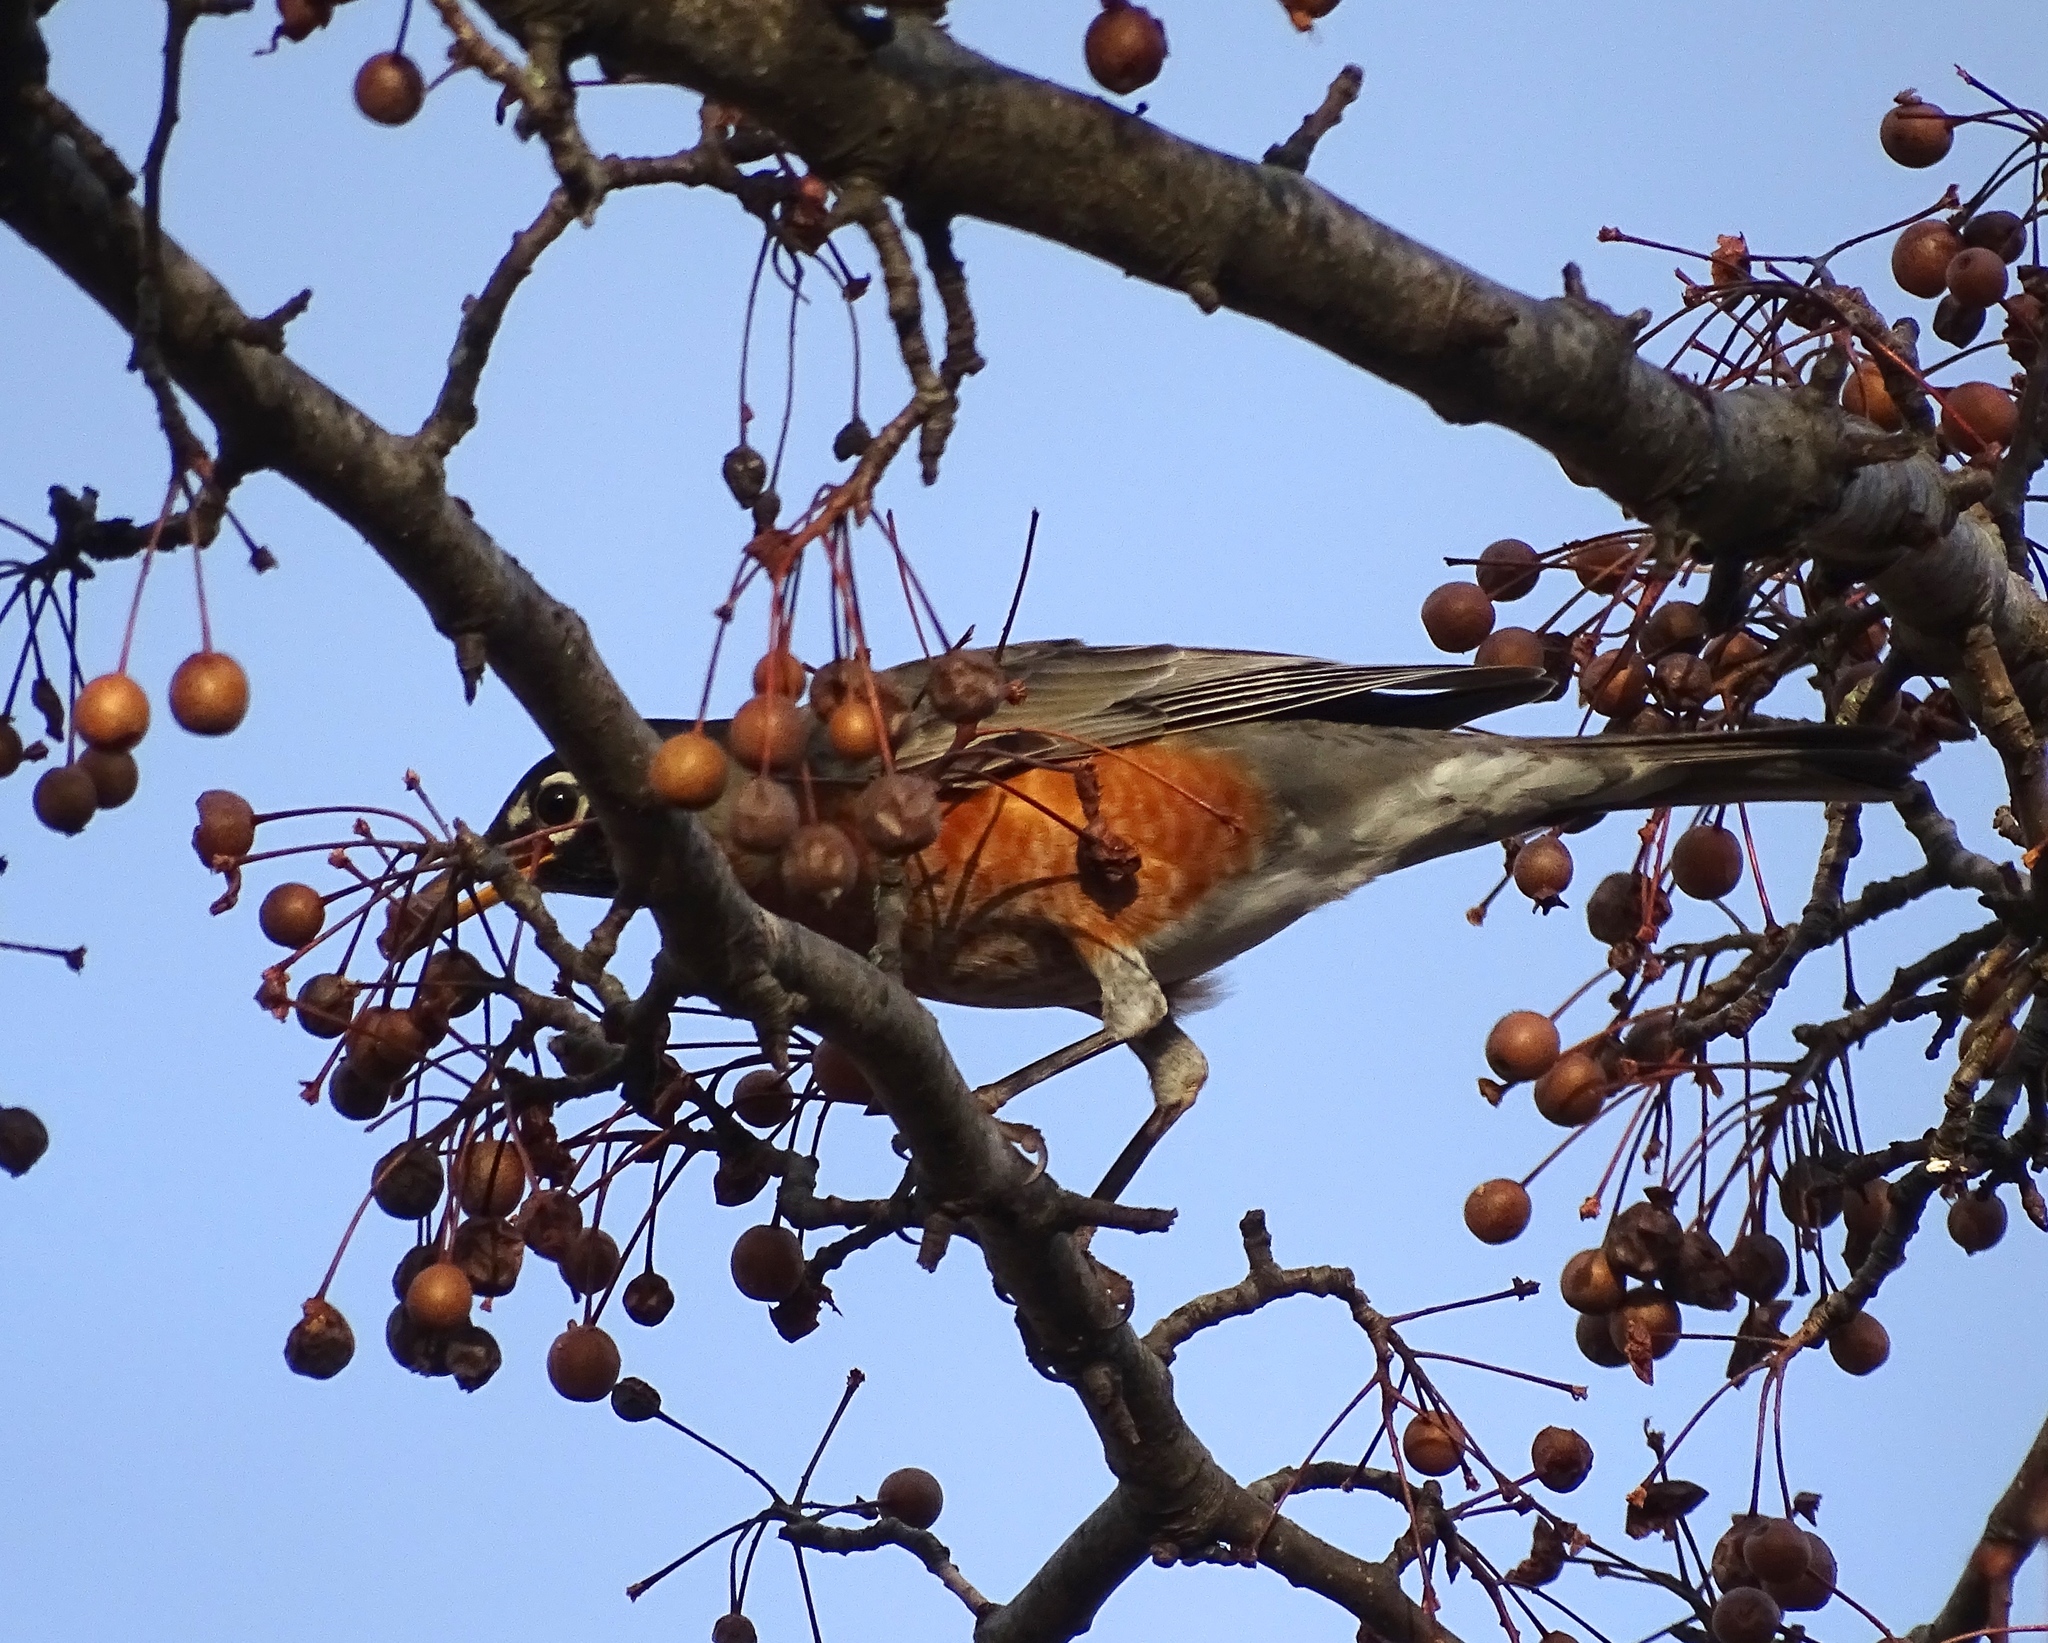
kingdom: Animalia
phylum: Chordata
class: Aves
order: Passeriformes
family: Turdidae
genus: Turdus
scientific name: Turdus migratorius
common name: American robin
